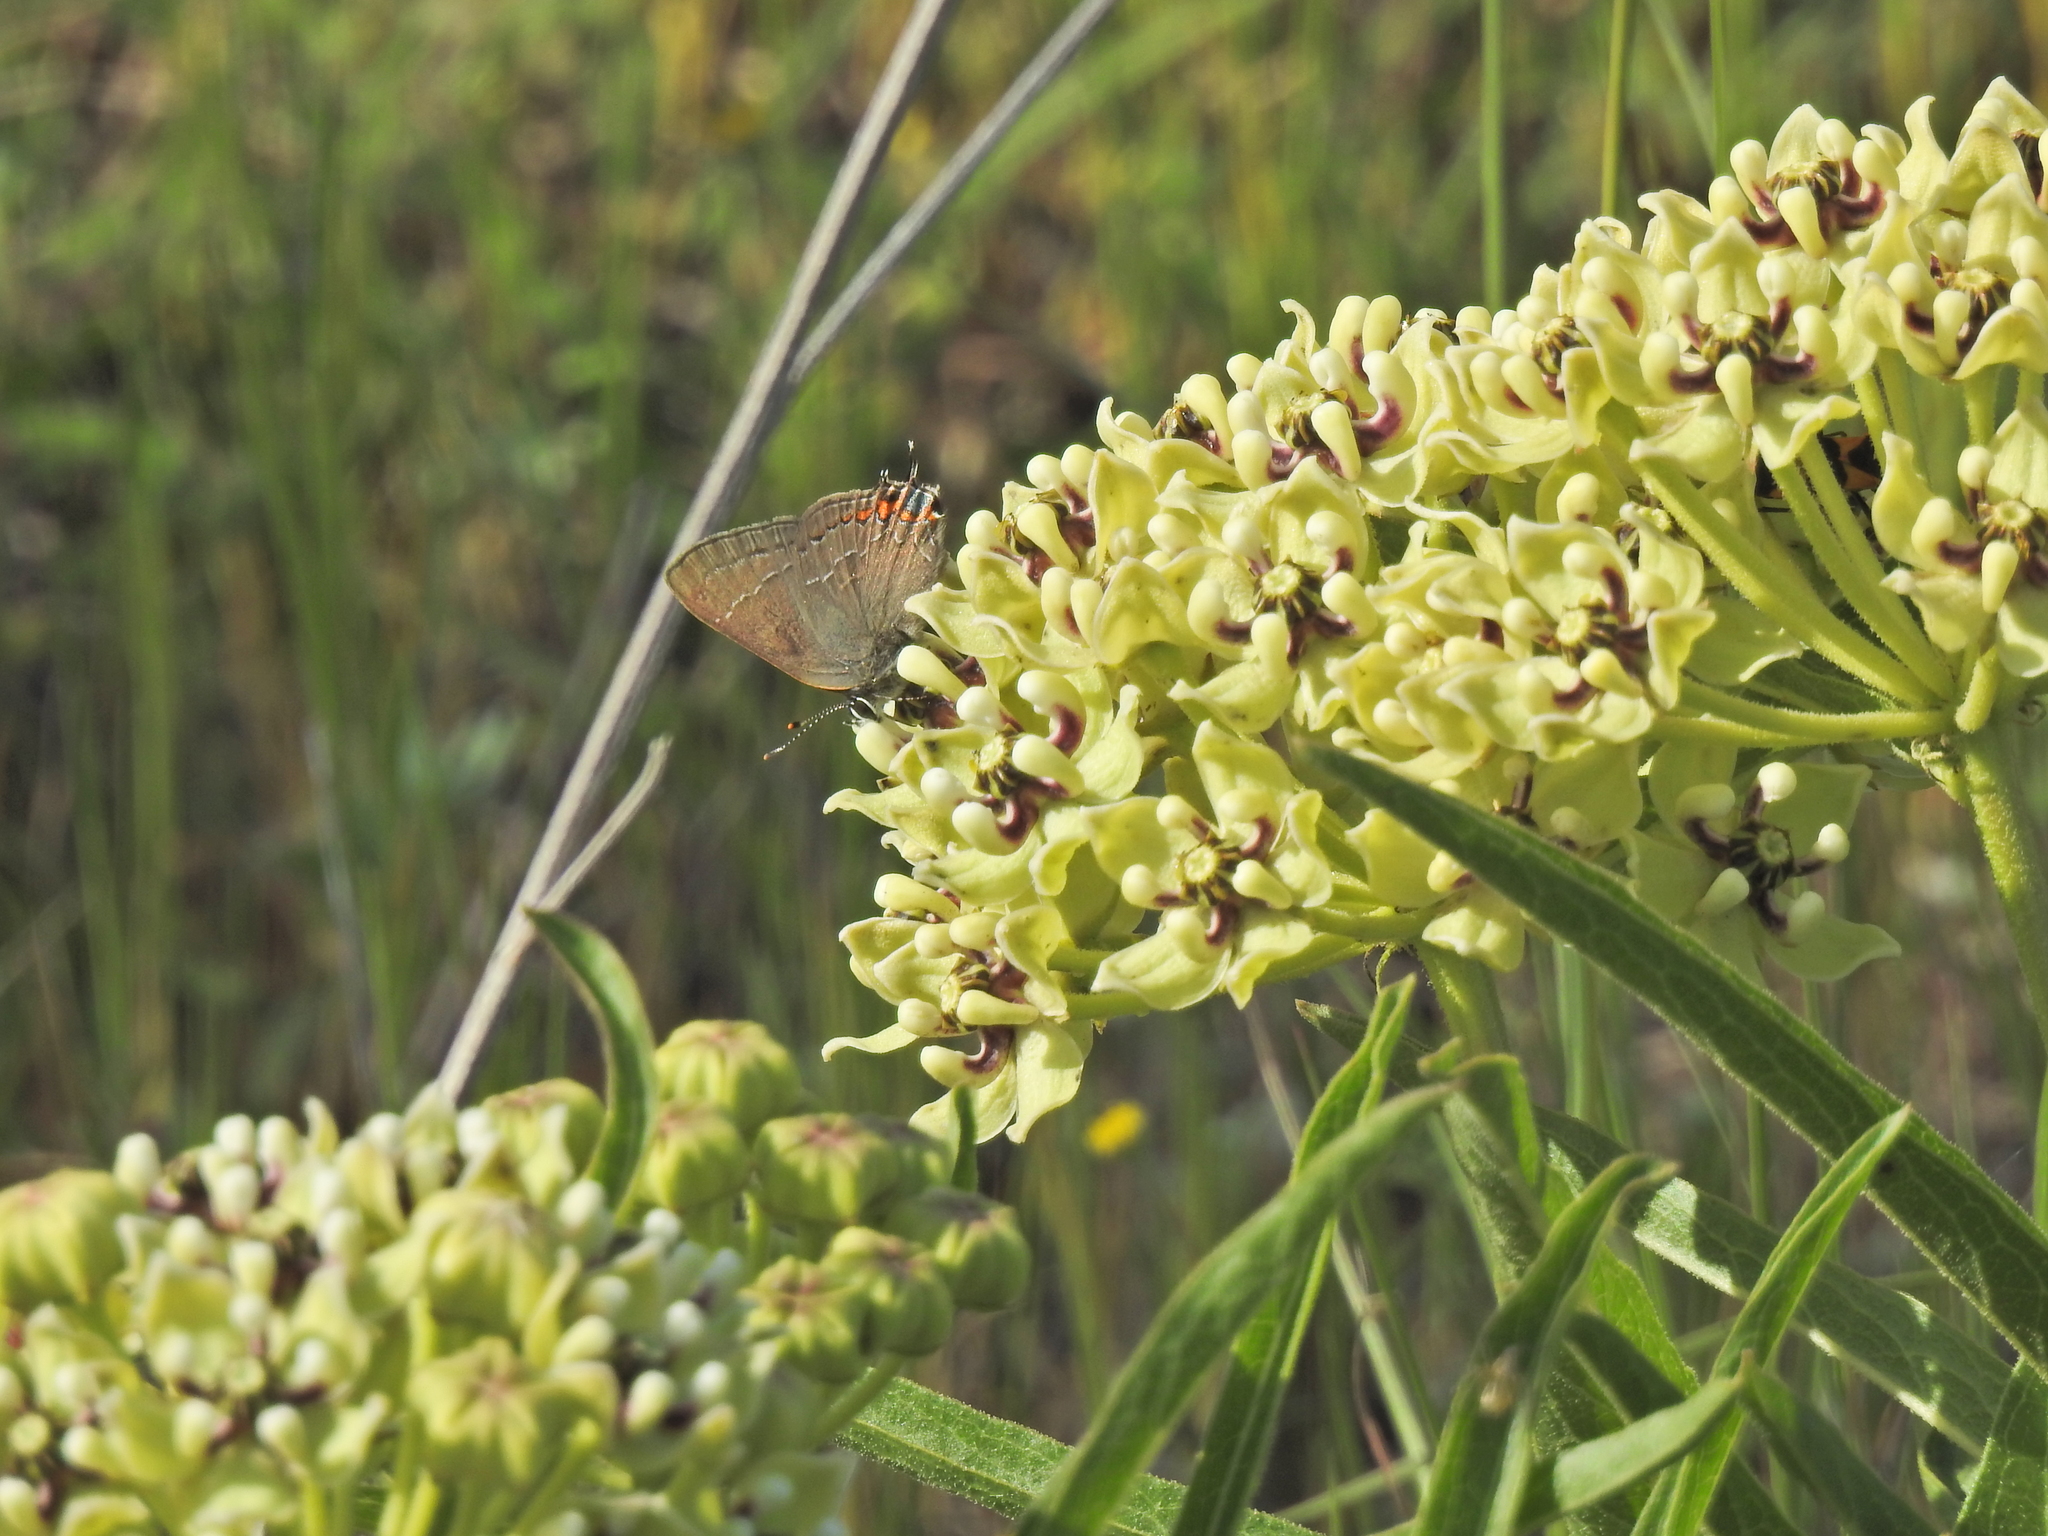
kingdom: Animalia
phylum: Arthropoda
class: Insecta
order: Lepidoptera
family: Lycaenidae
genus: Fixsenia
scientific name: Fixsenia favonius
